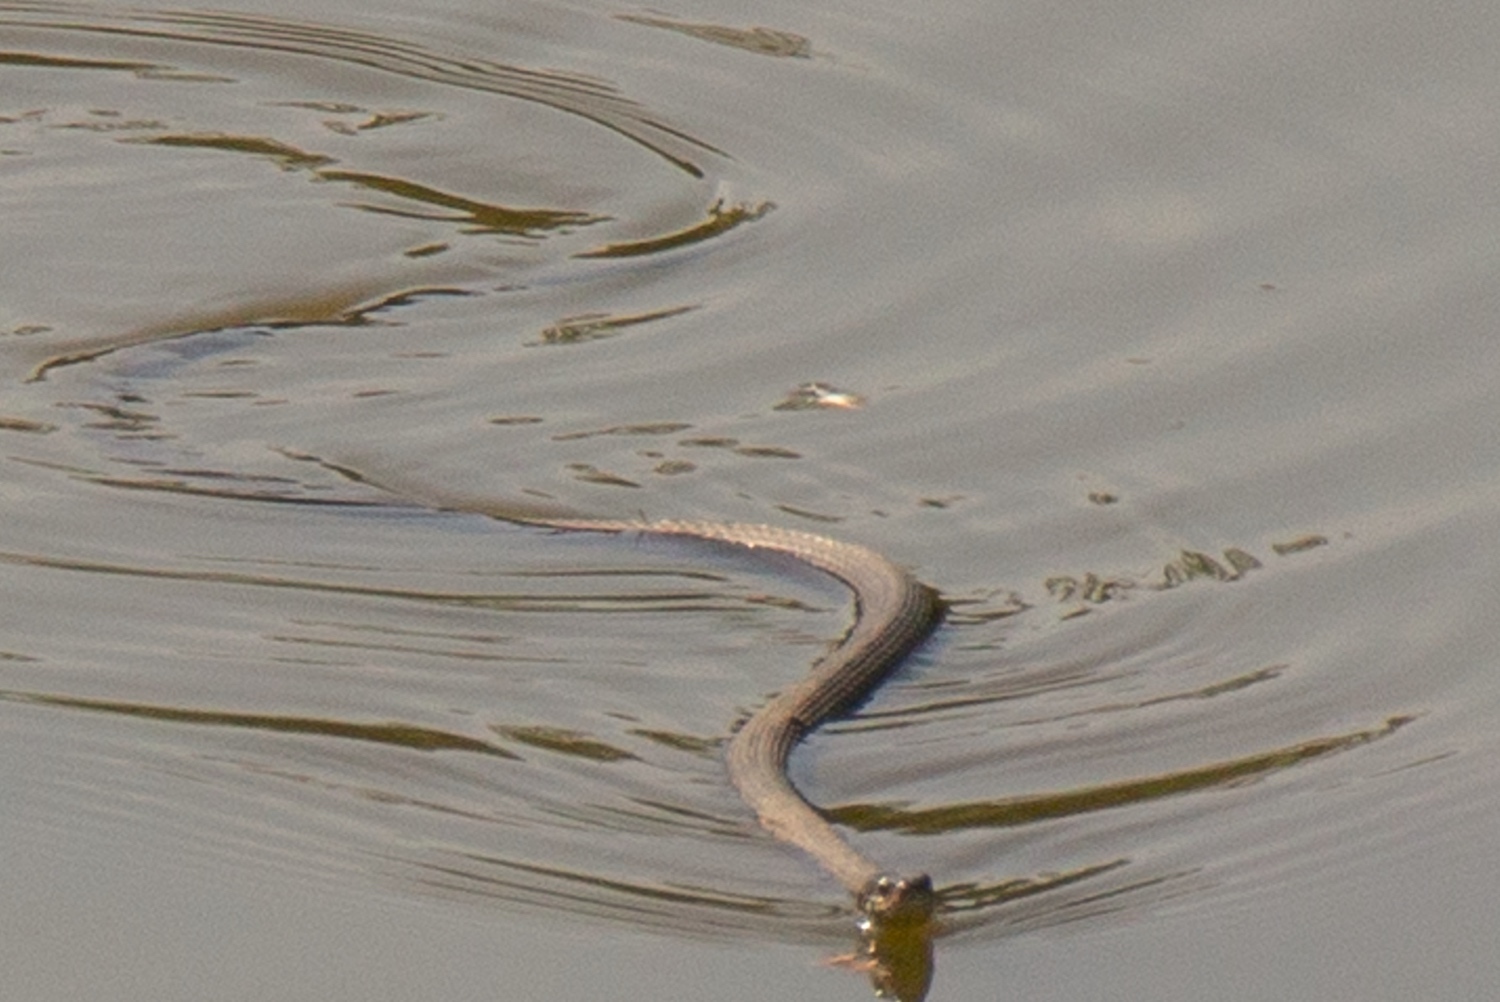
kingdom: Animalia
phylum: Chordata
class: Squamata
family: Colubridae
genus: Natrix
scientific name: Natrix
